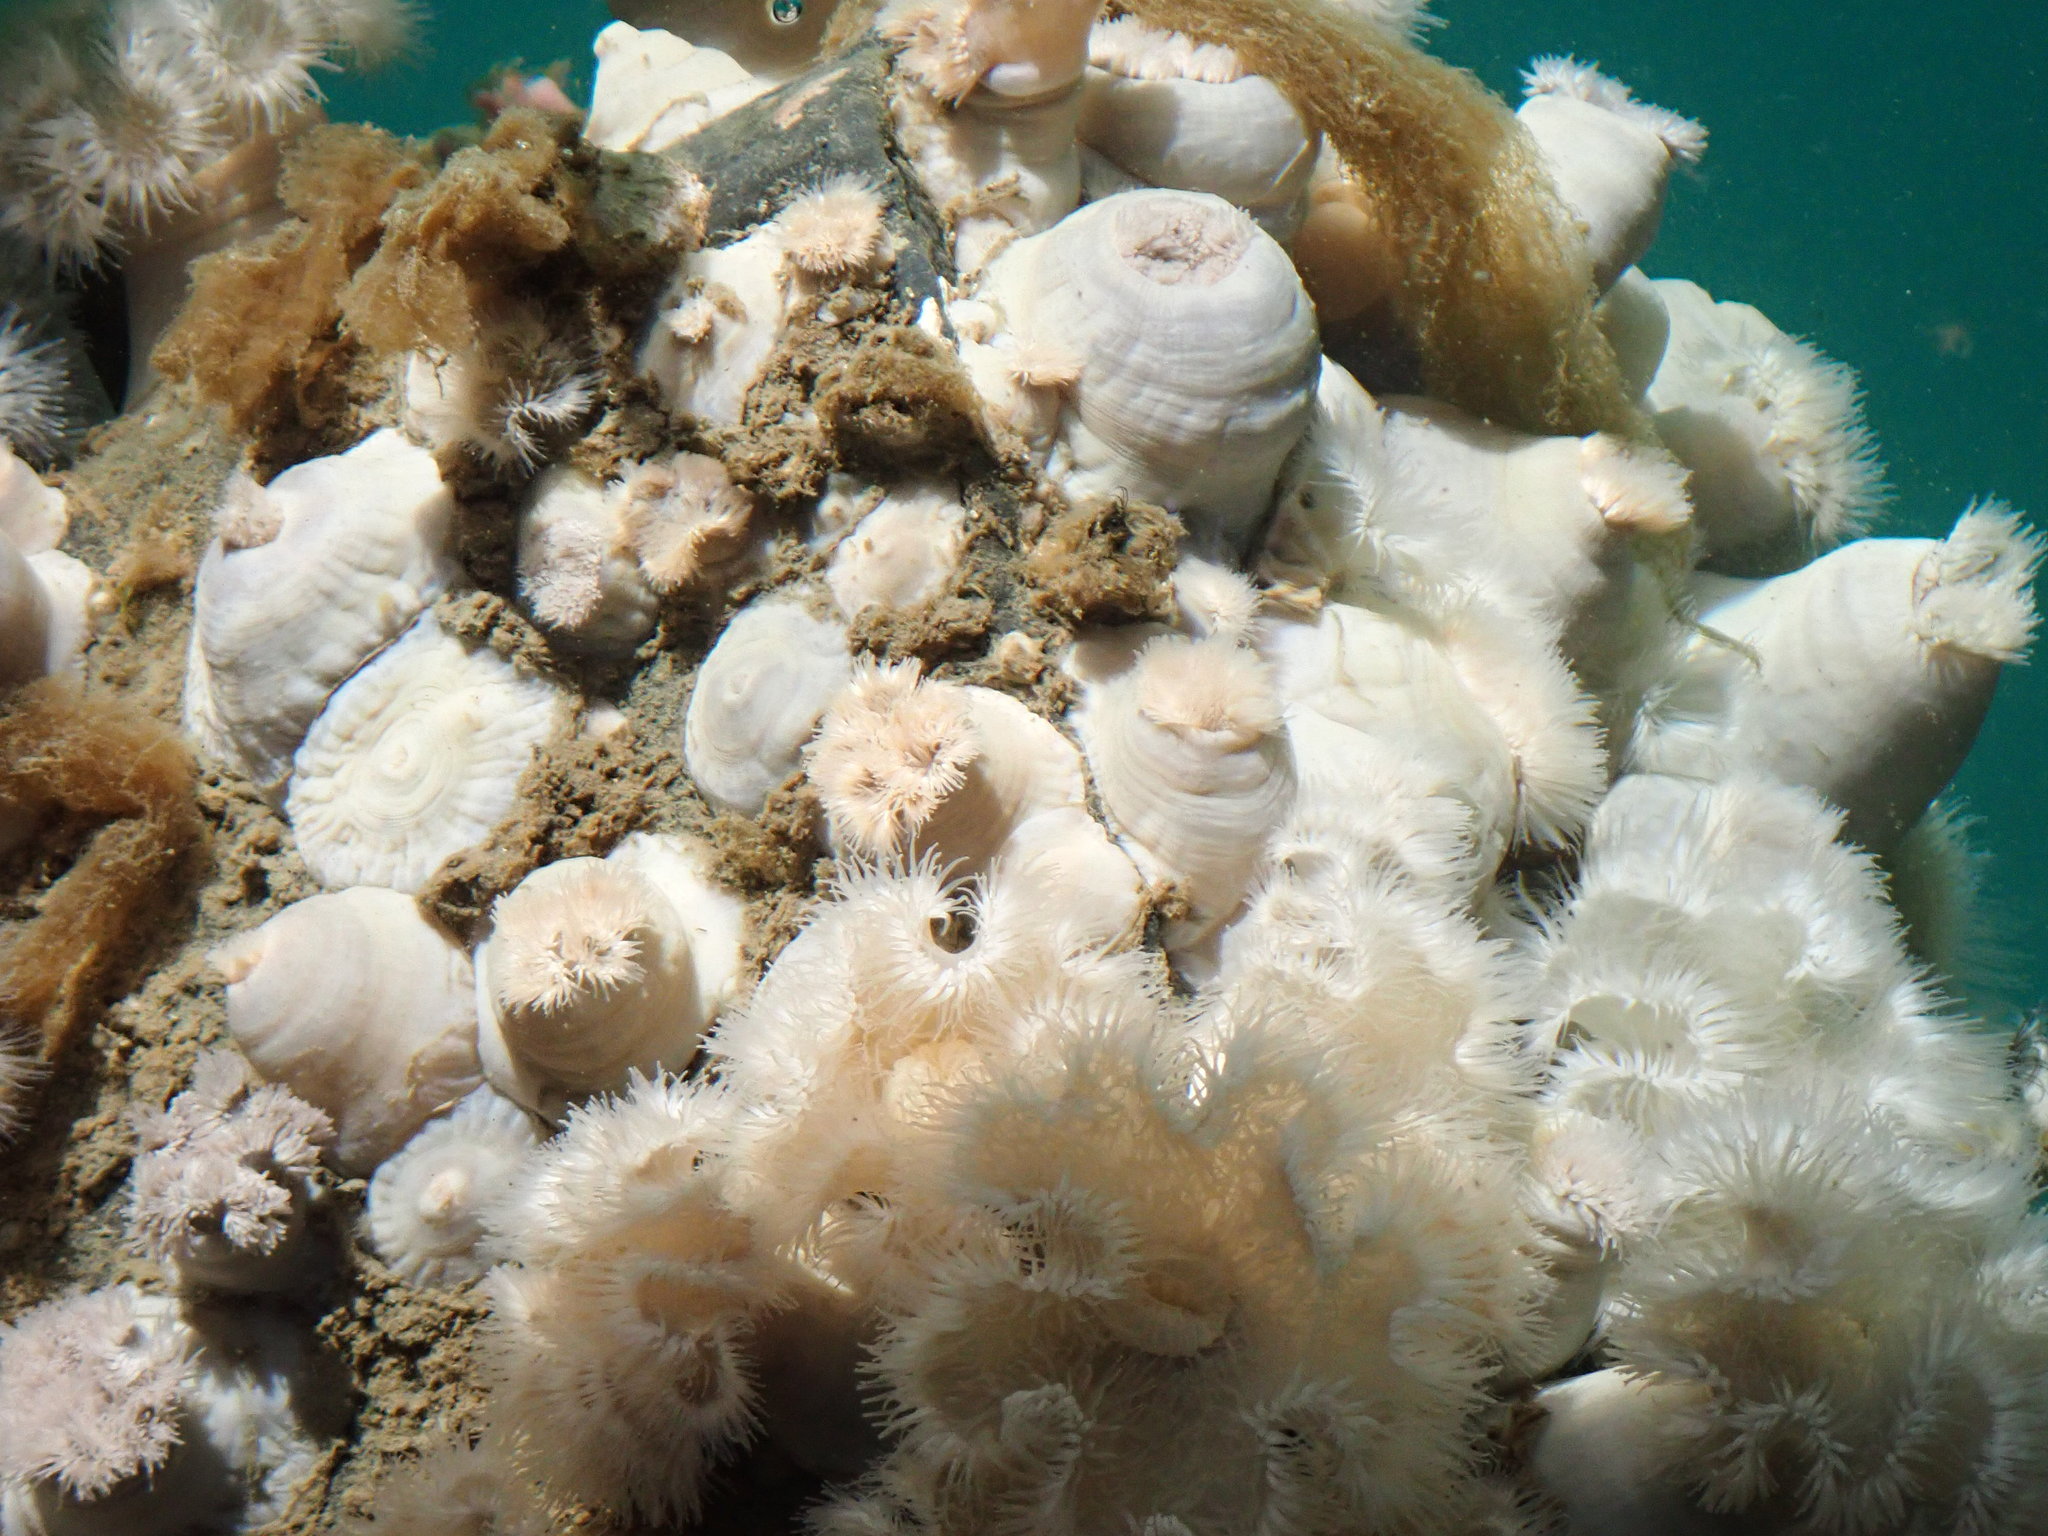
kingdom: Animalia
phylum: Cnidaria
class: Anthozoa
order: Actiniaria
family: Metridiidae
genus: Metridium
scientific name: Metridium senile
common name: Clonal plumose anemone
